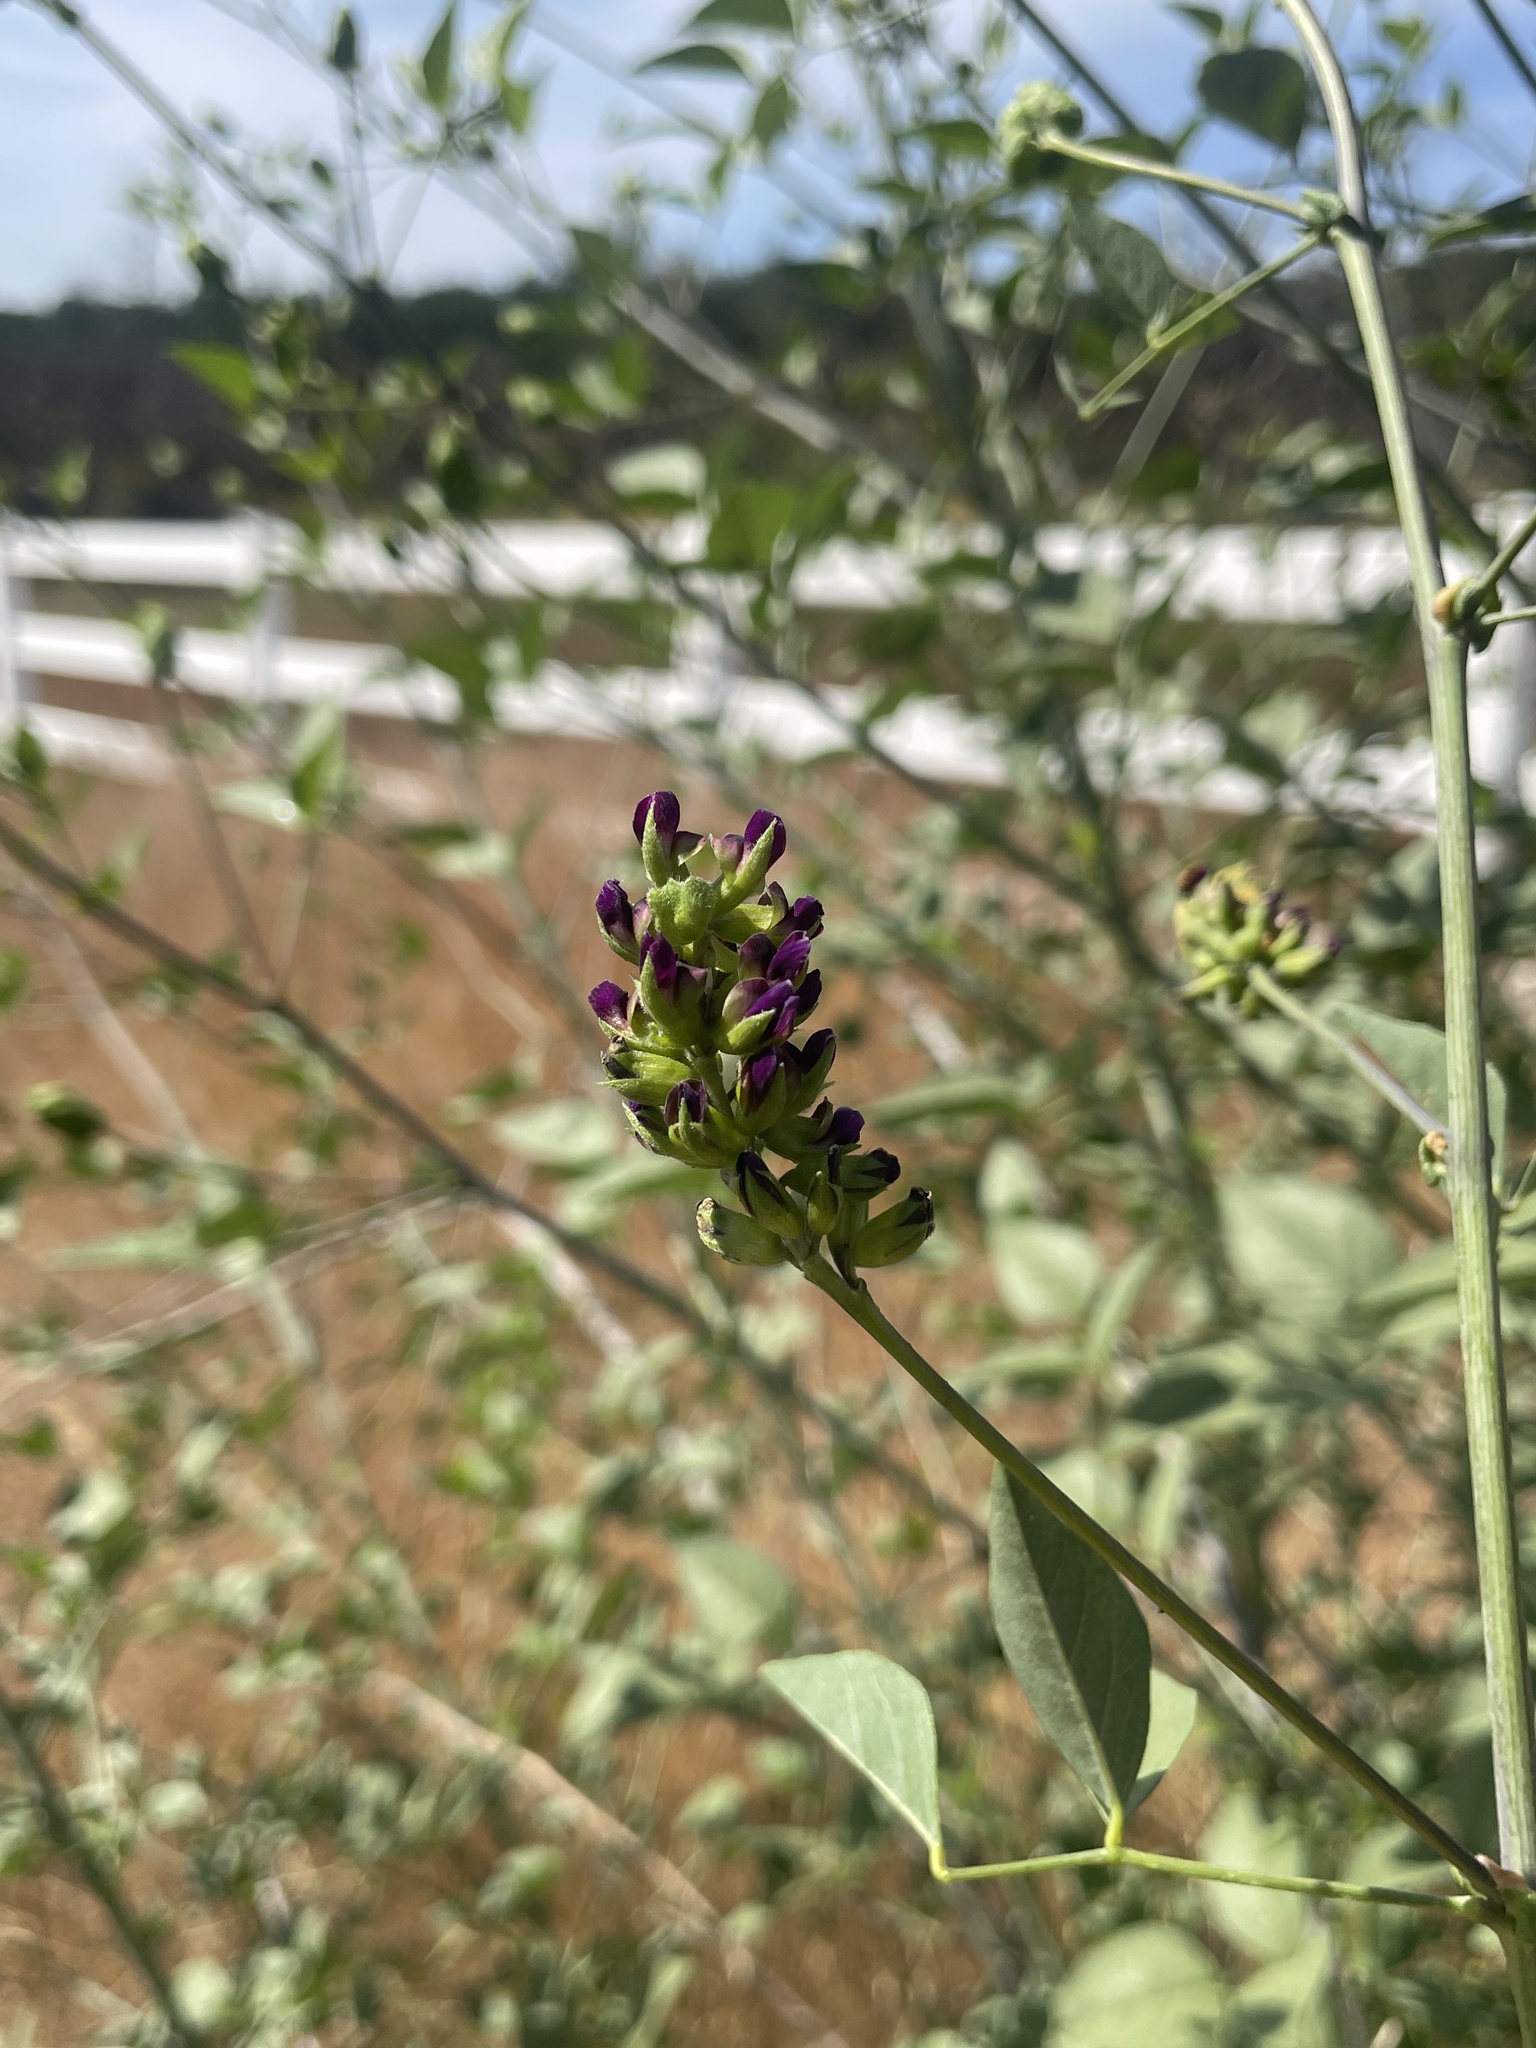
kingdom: Plantae
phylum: Tracheophyta
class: Magnoliopsida
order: Fabales
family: Fabaceae
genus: Hoita
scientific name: Hoita macrostachya
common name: Leatherroot
